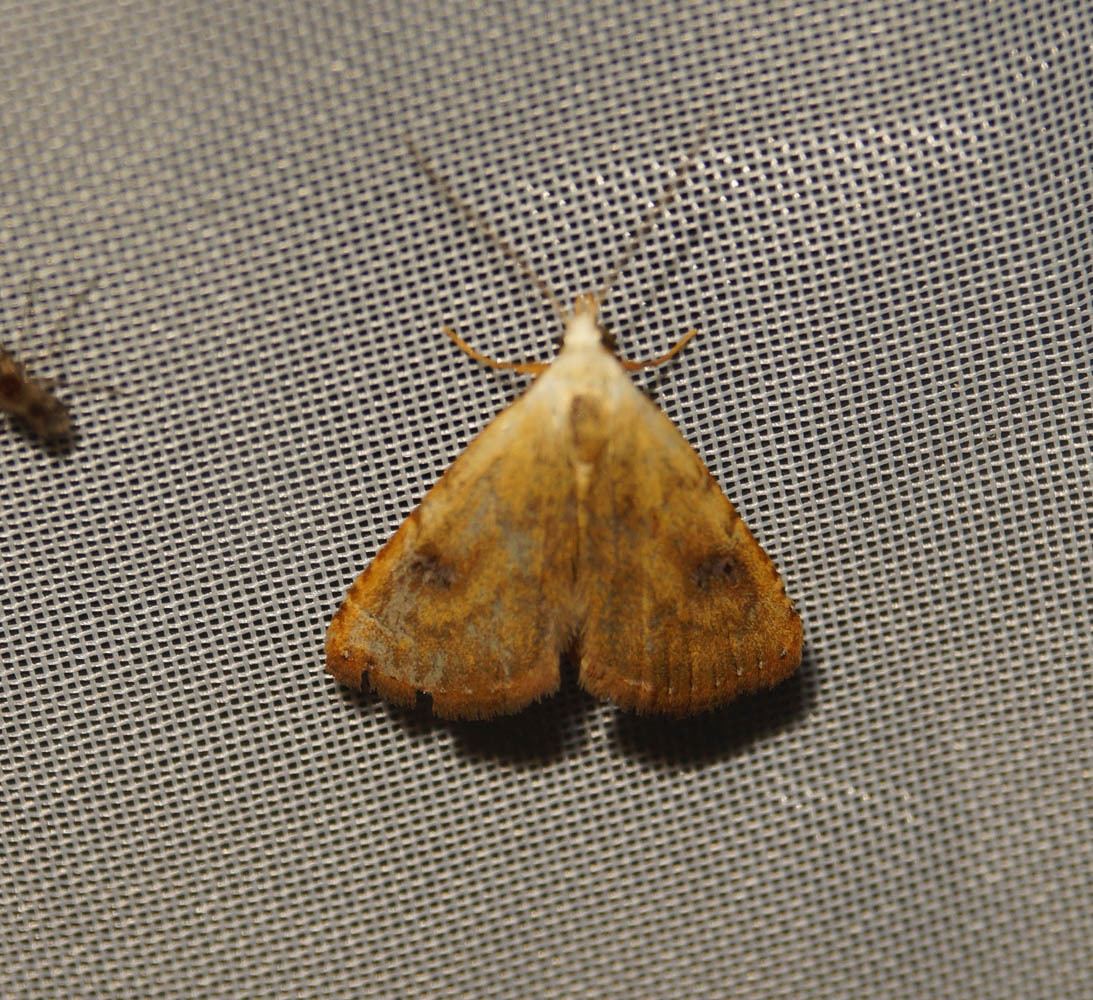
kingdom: Animalia
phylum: Arthropoda
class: Insecta
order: Lepidoptera
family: Erebidae
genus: Rivula
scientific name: Rivula sericealis
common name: Straw dot
